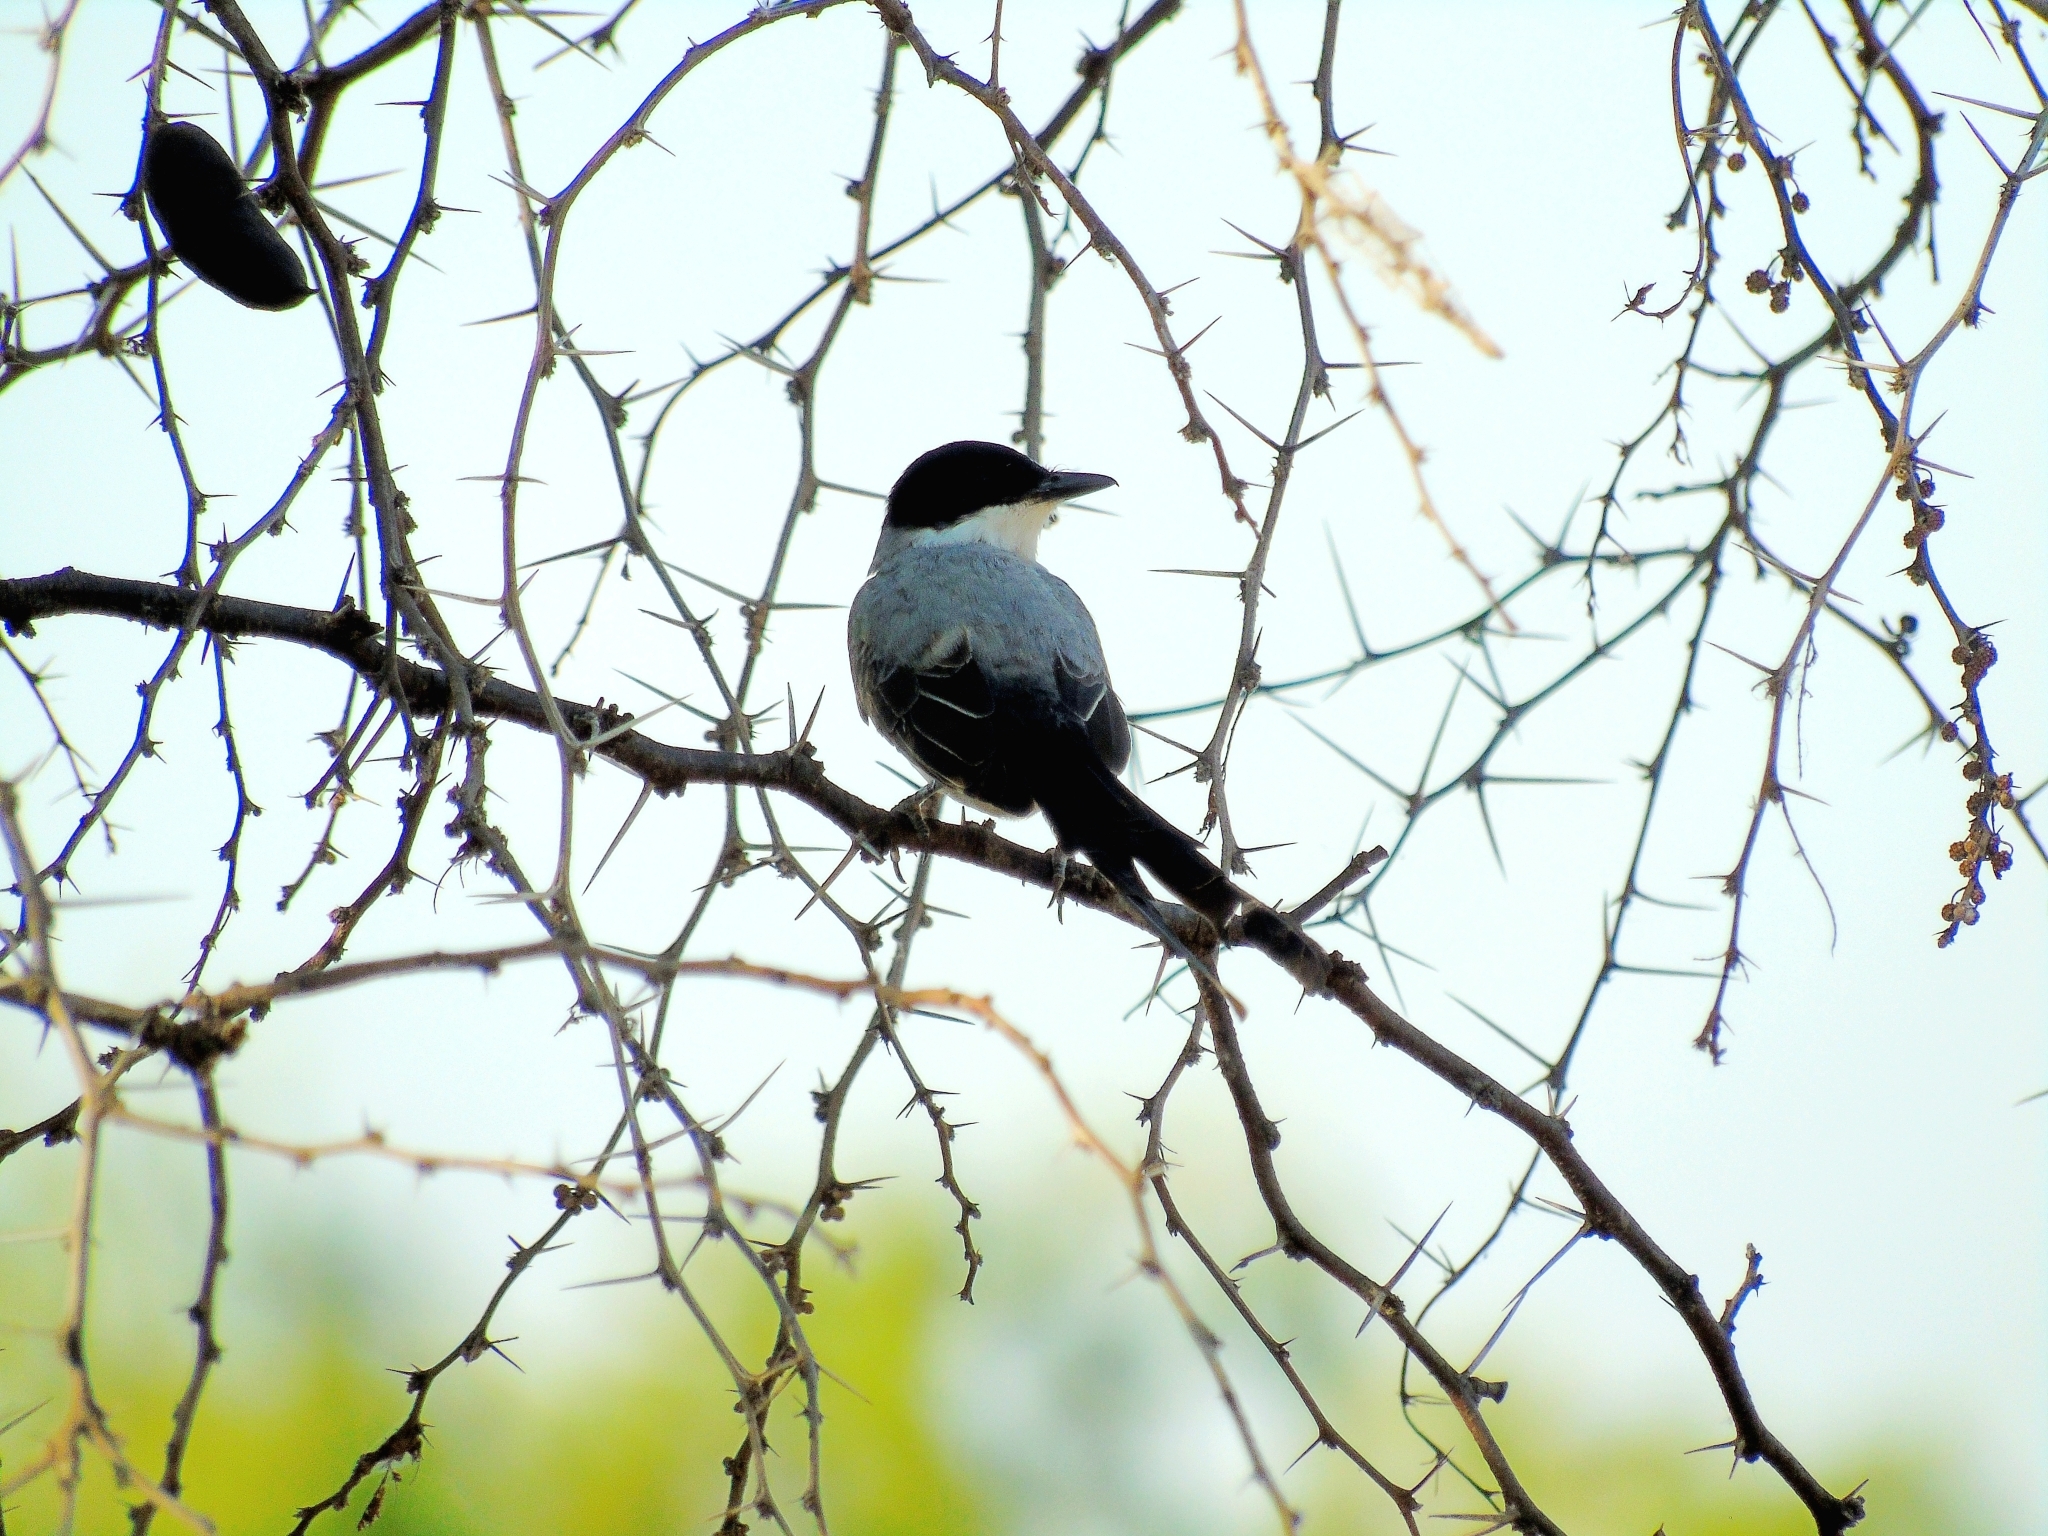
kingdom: Animalia
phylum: Chordata
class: Aves
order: Passeriformes
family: Tyrannidae
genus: Tyrannus
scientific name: Tyrannus savana
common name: Fork-tailed flycatcher
